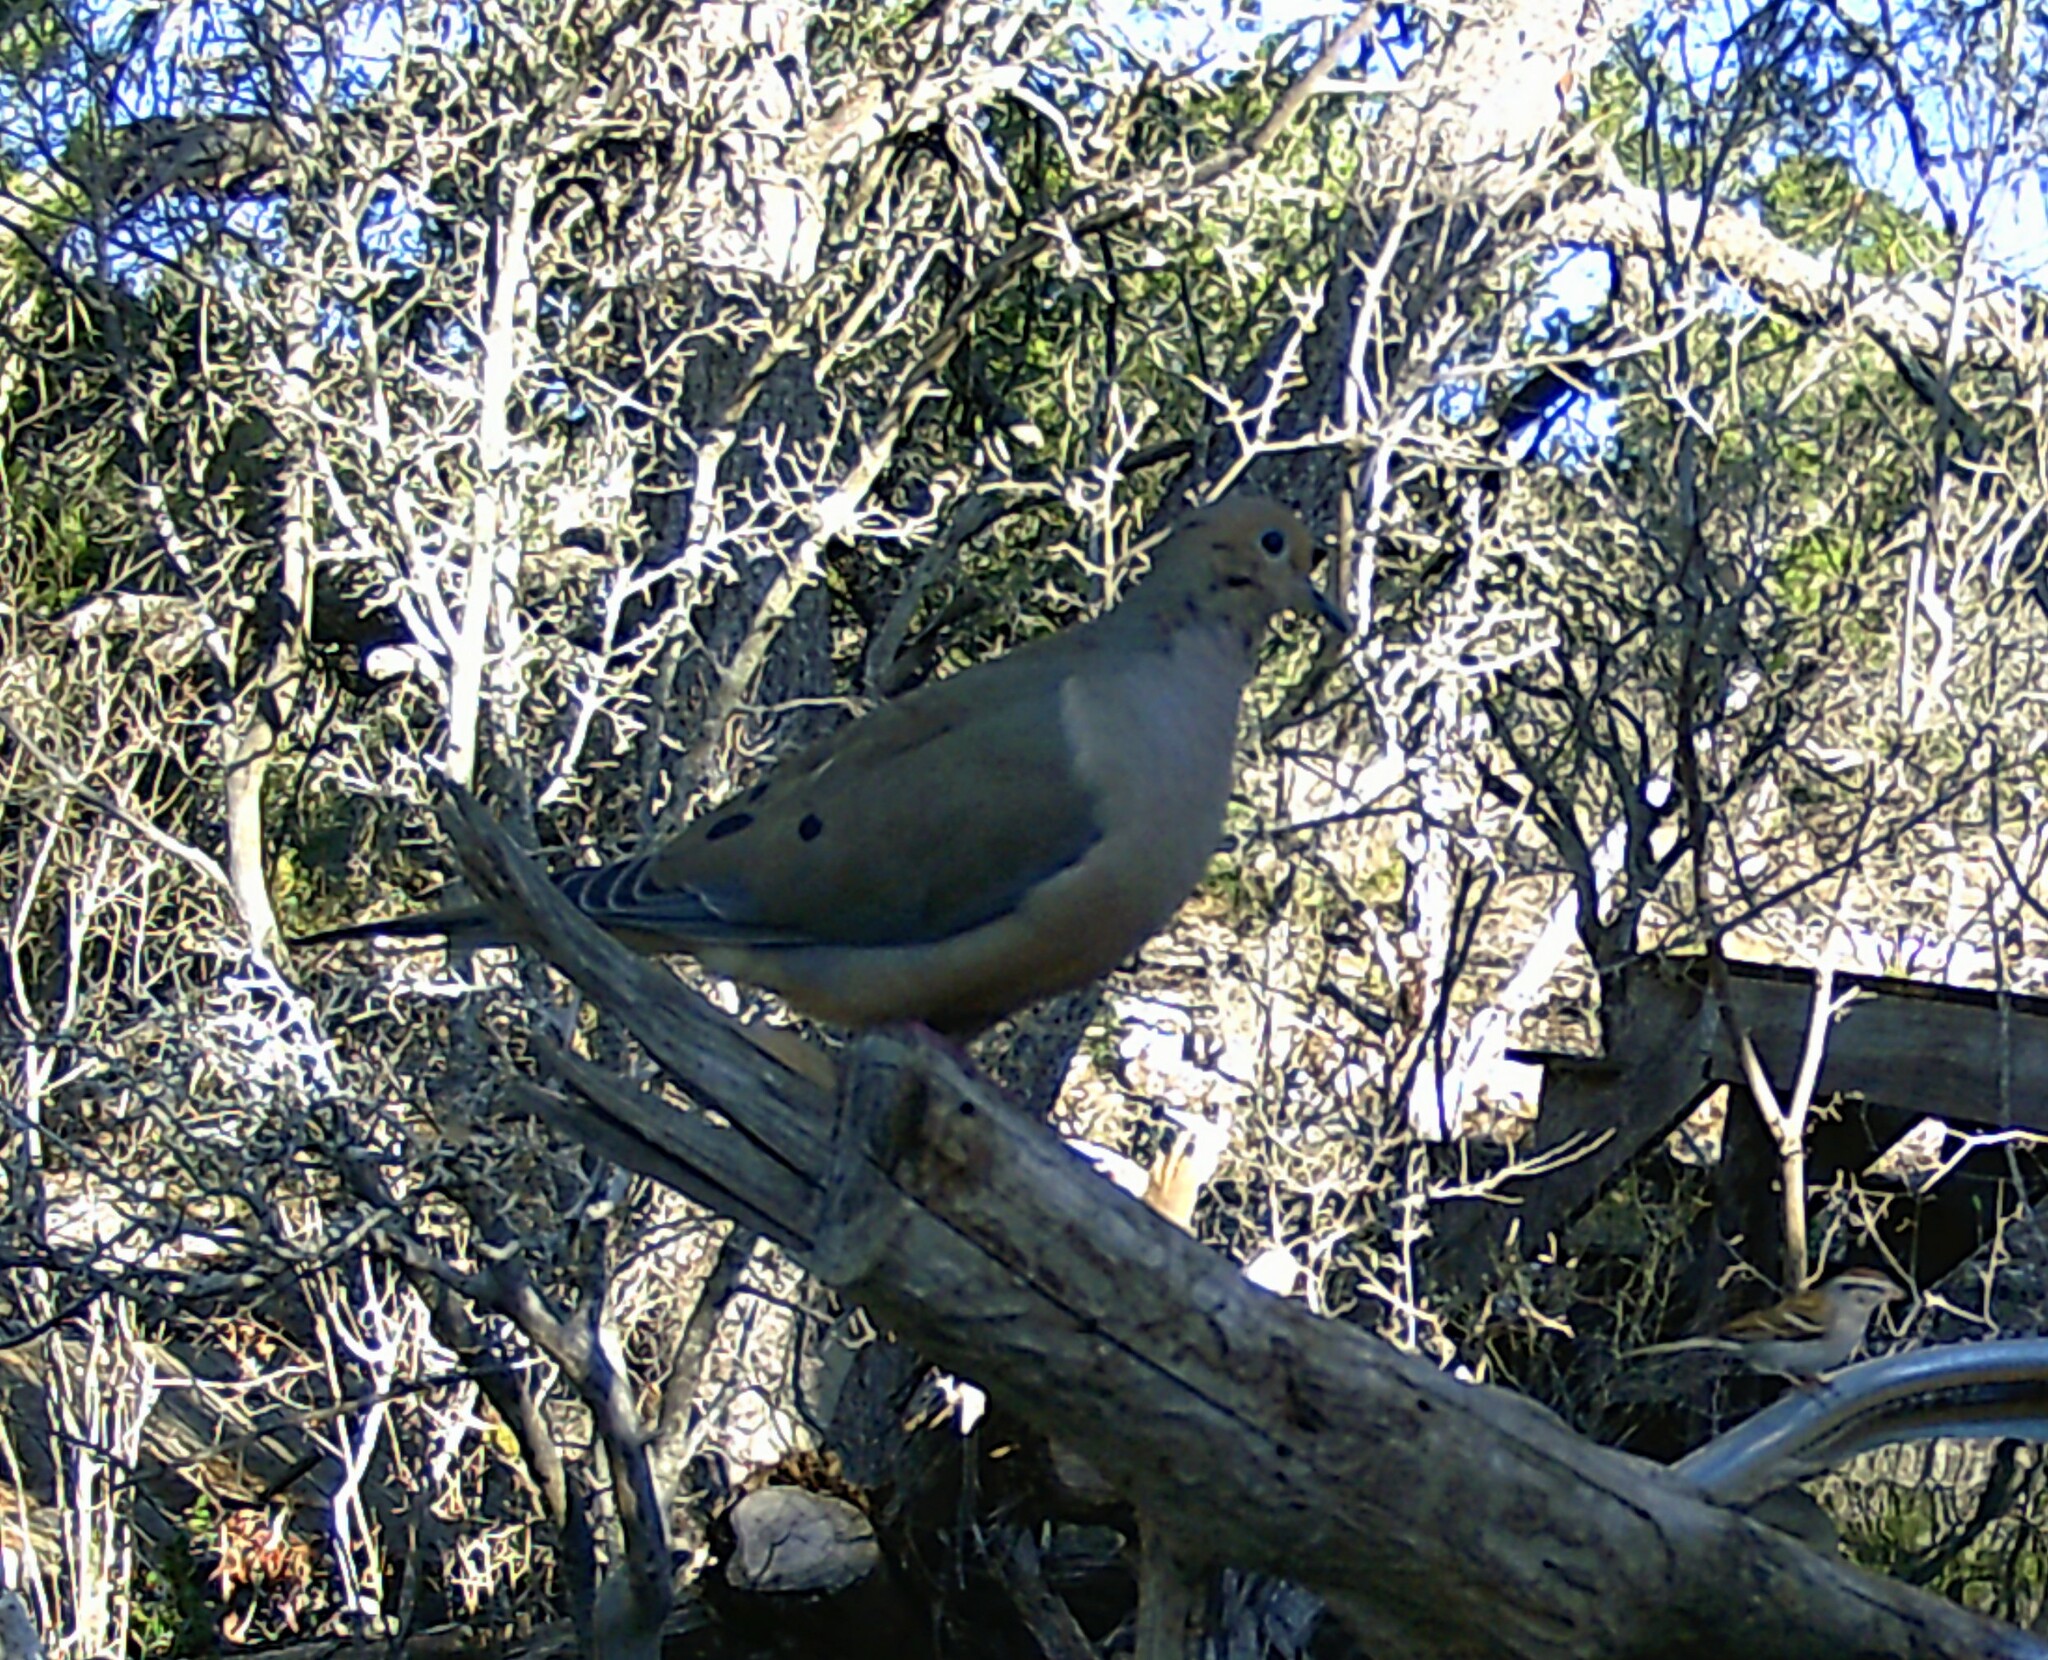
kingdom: Animalia
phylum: Chordata
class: Aves
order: Columbiformes
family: Columbidae
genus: Zenaida
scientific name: Zenaida macroura
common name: Mourning dove
